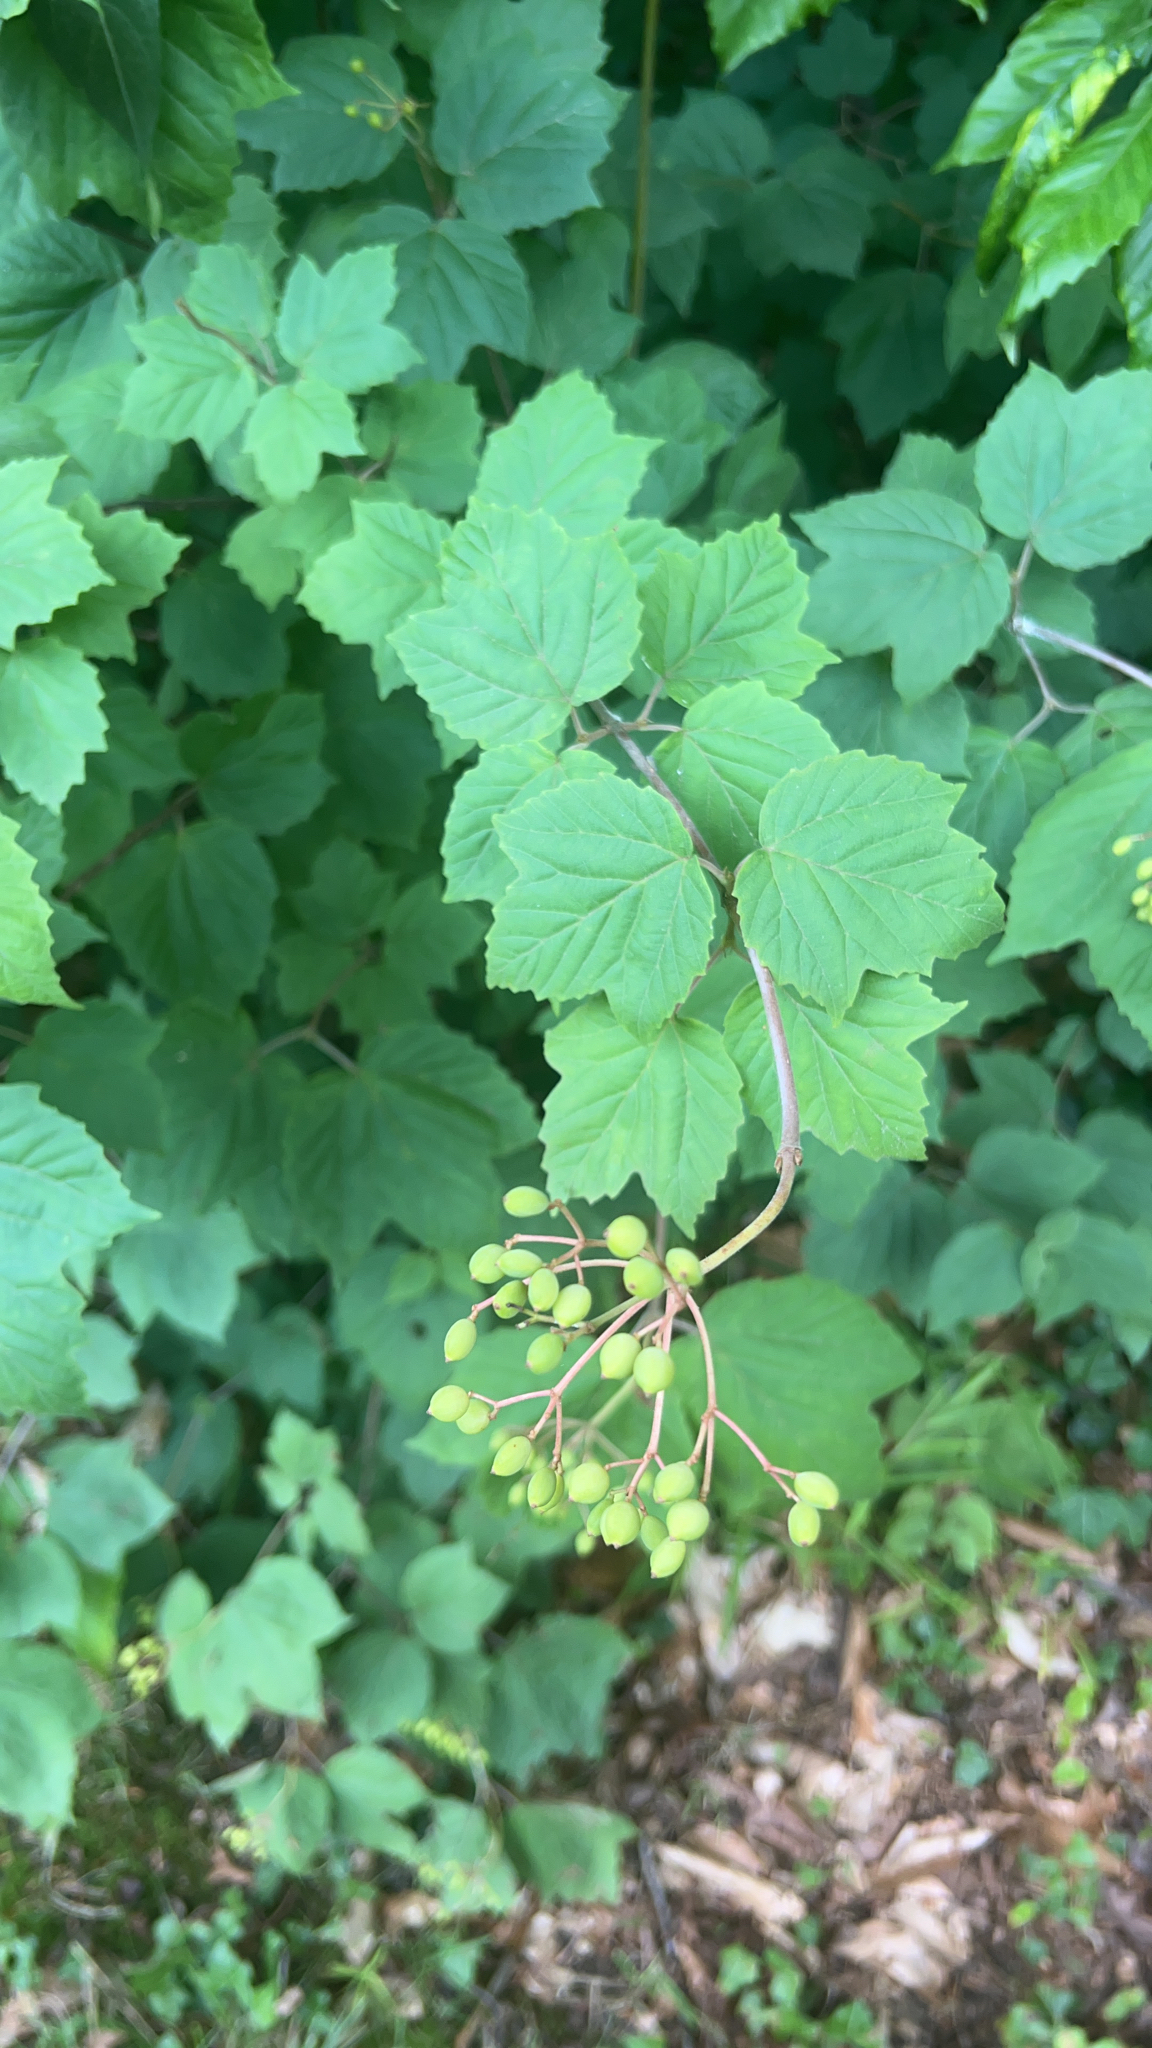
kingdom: Plantae
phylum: Tracheophyta
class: Magnoliopsida
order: Dipsacales
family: Viburnaceae
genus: Viburnum
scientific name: Viburnum acerifolium
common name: Dockmackie
